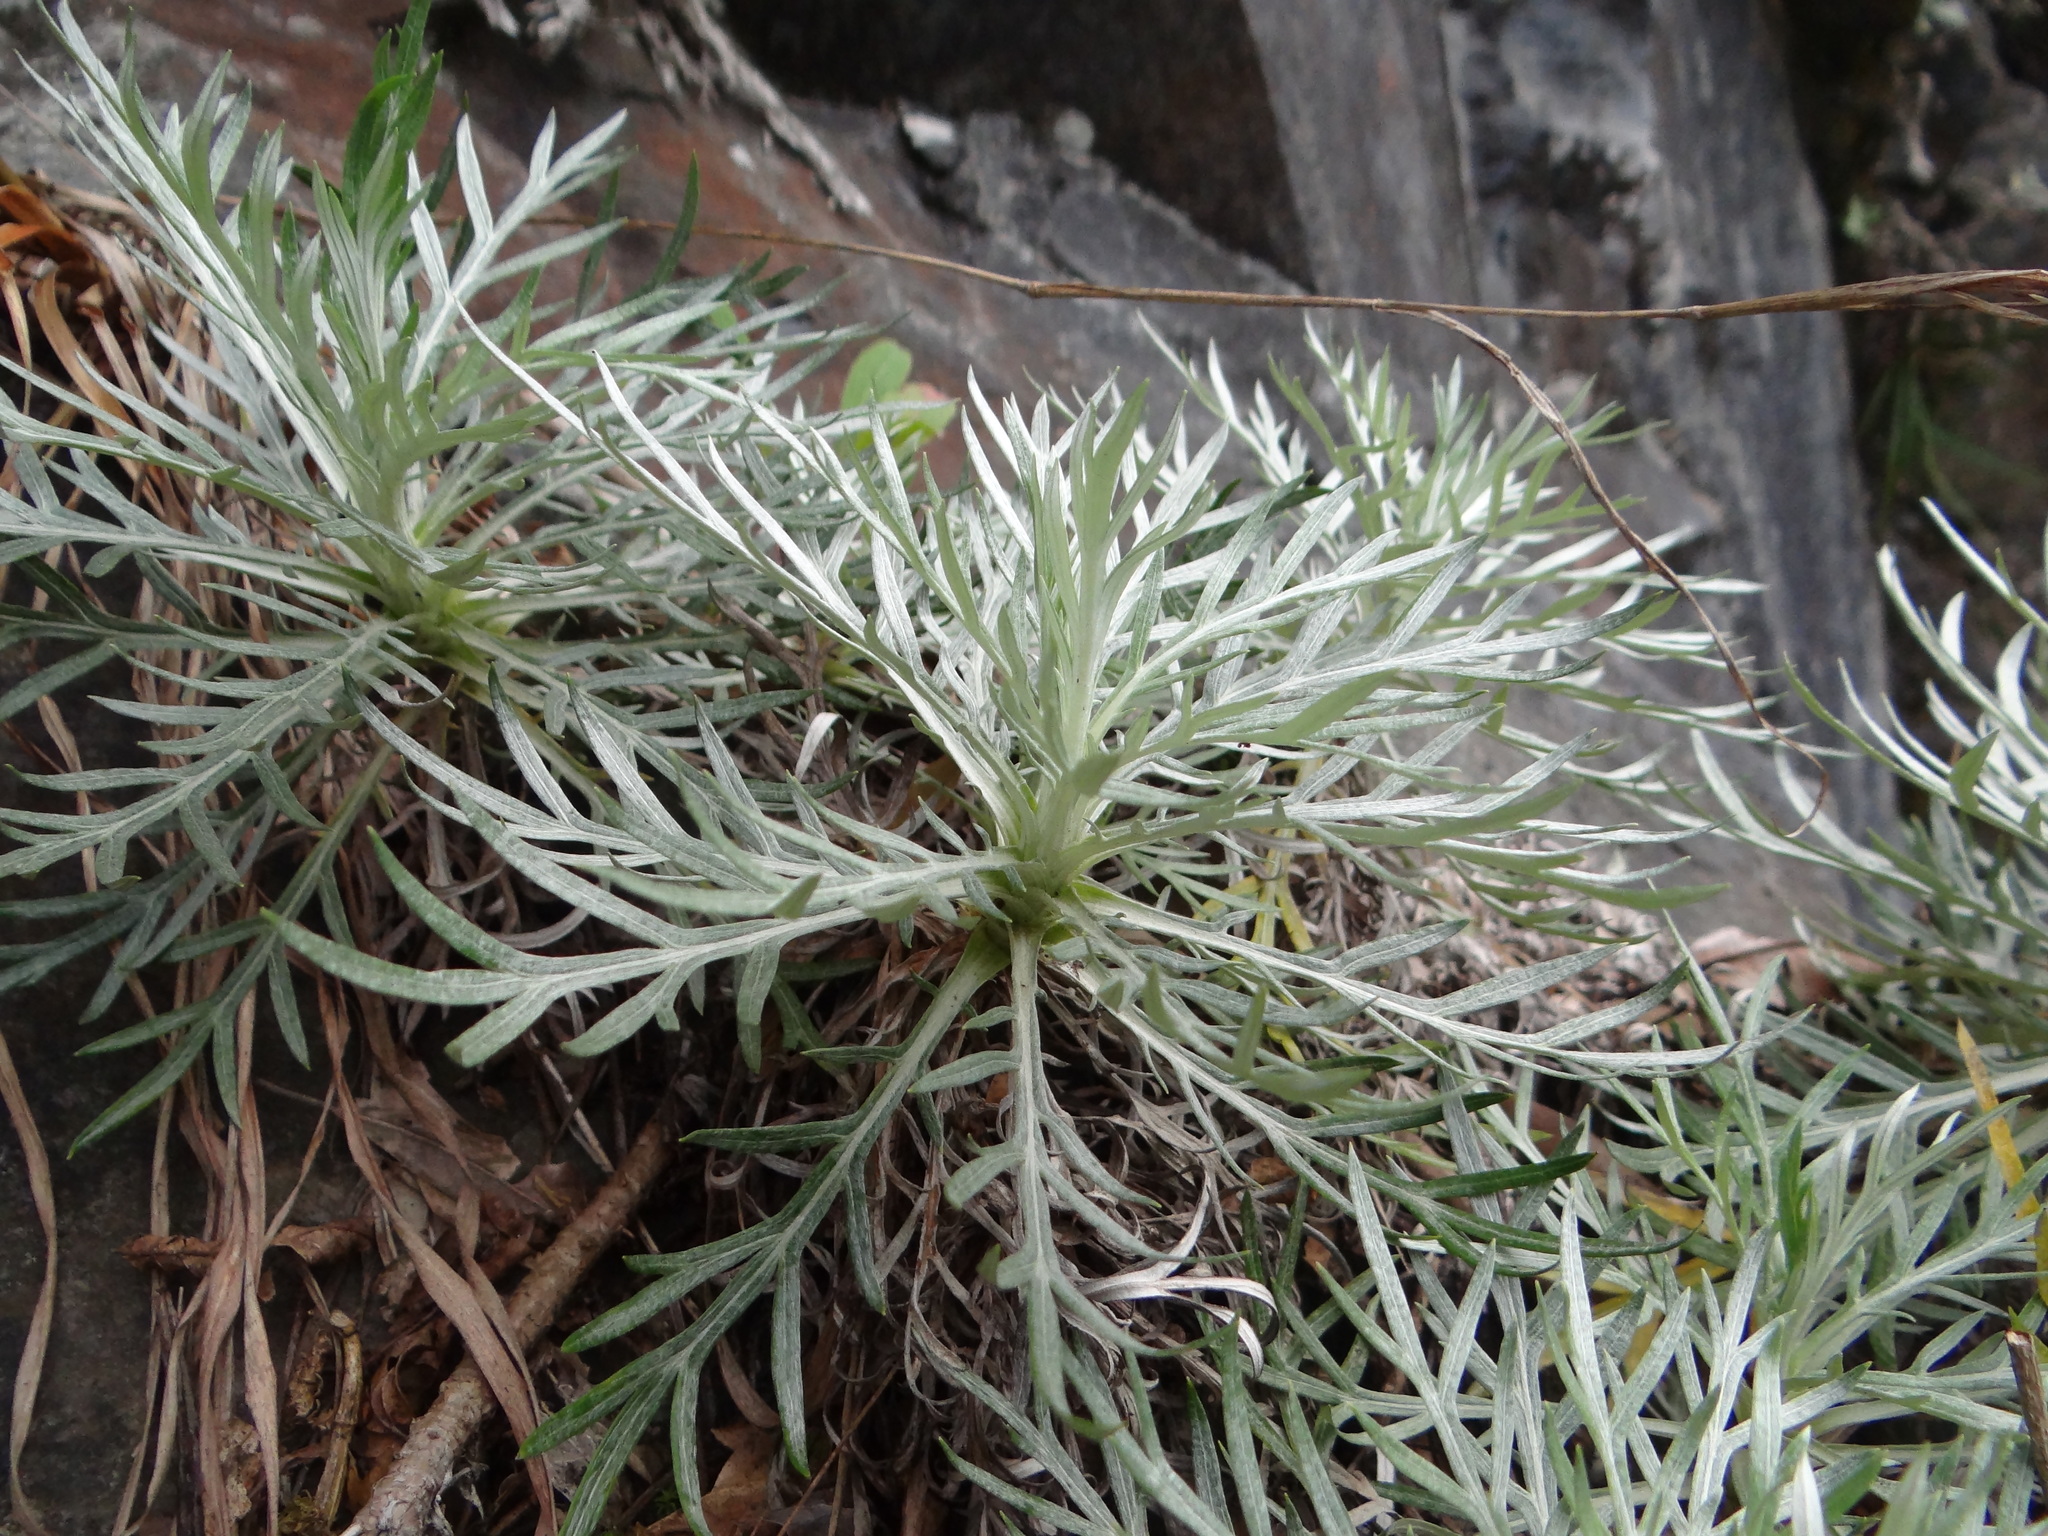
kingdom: Plantae
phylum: Tracheophyta
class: Magnoliopsida
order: Asterales
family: Asteraceae
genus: Artemisia
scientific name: Artemisia somae
